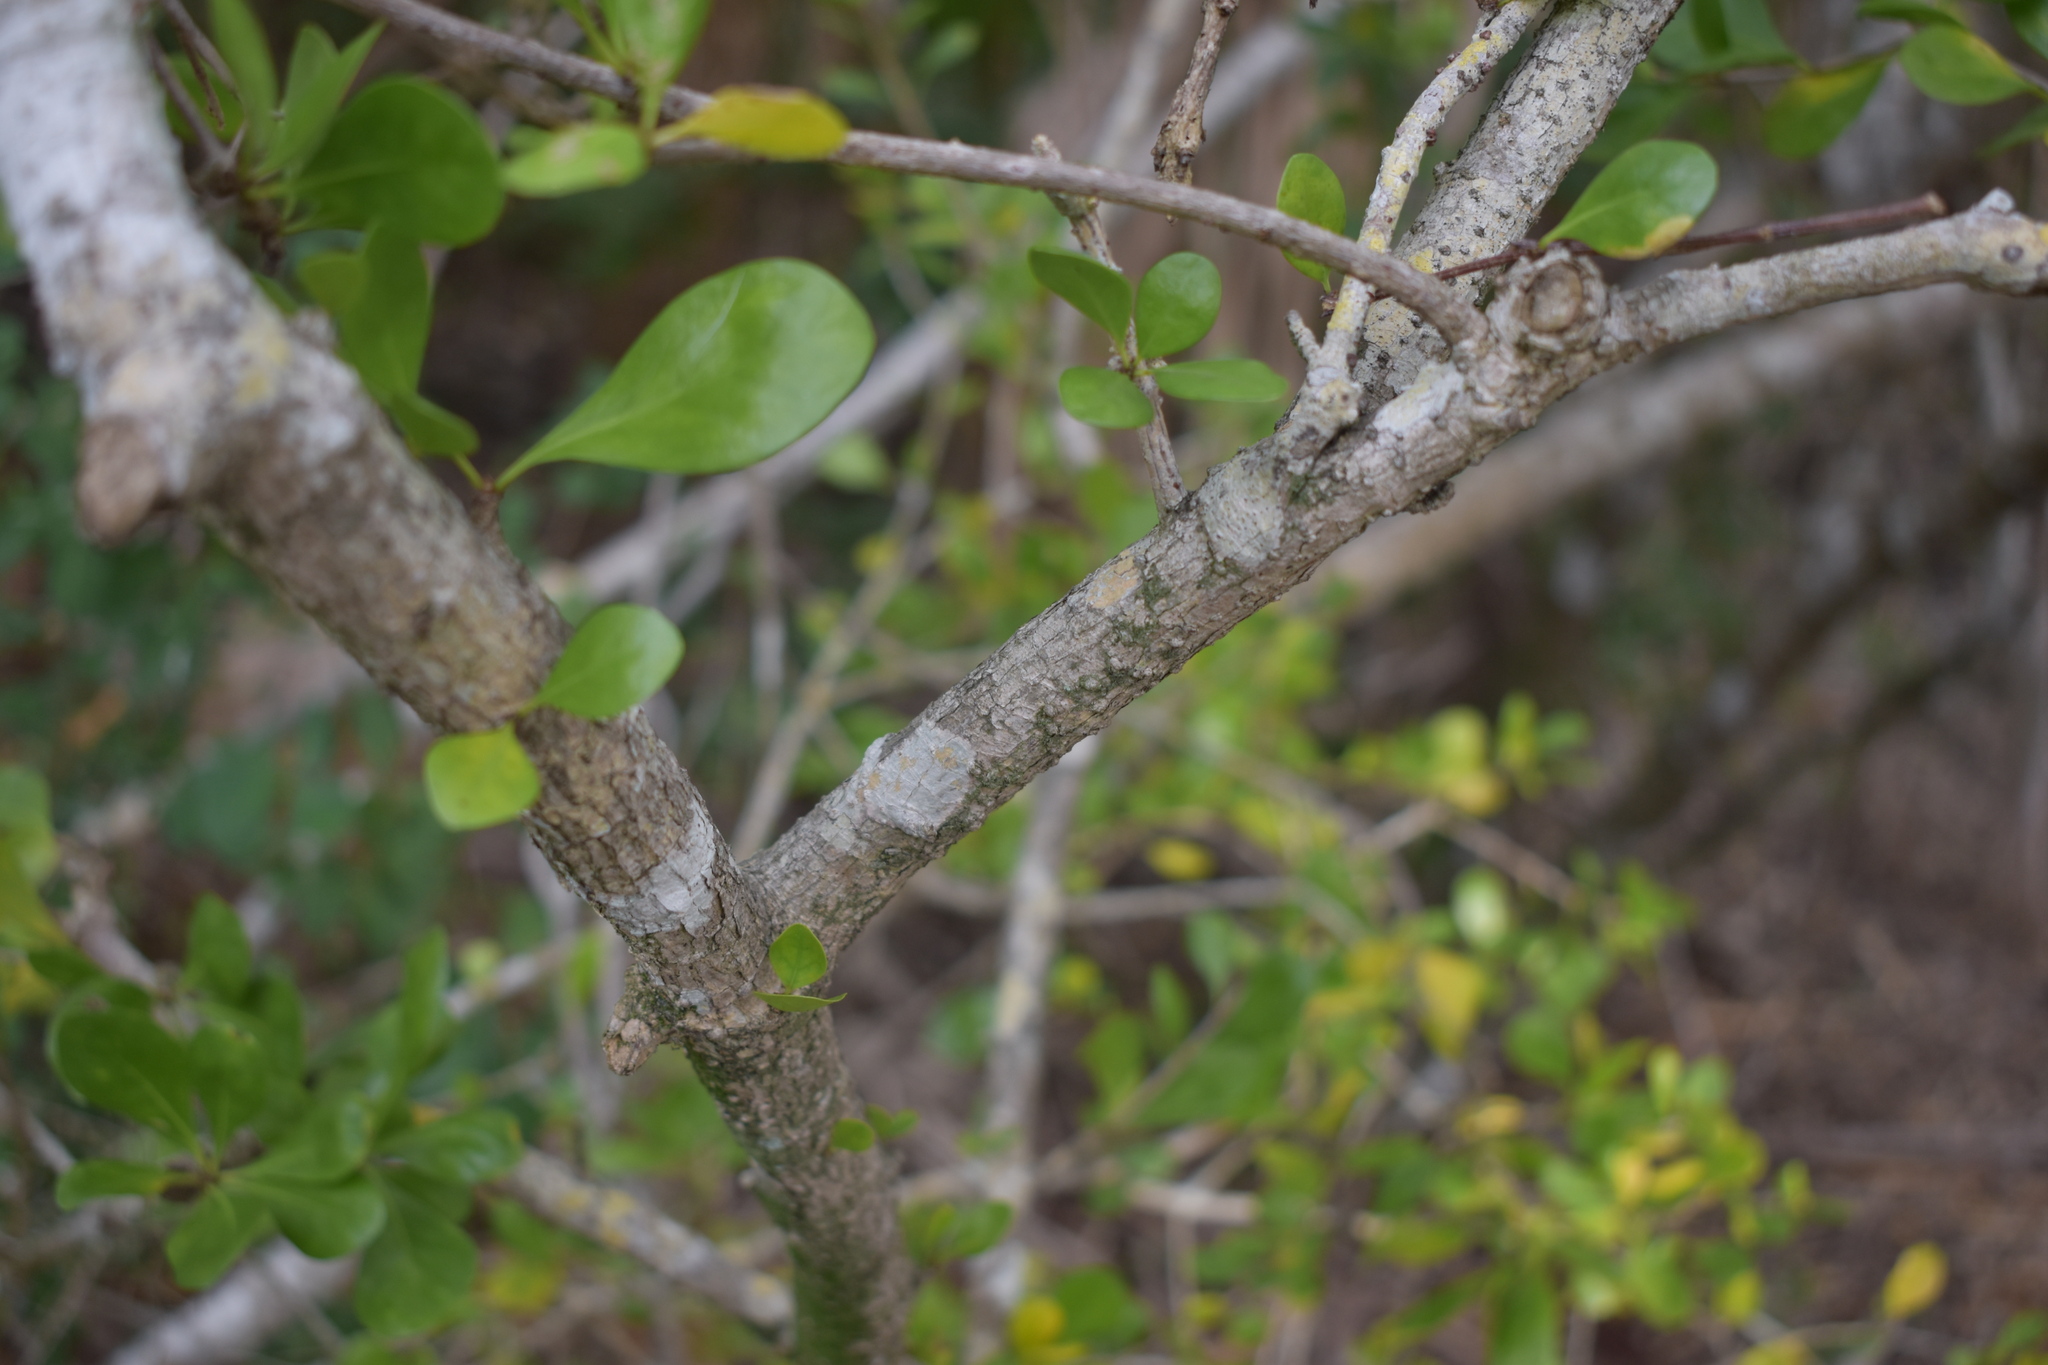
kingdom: Plantae
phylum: Tracheophyta
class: Magnoliopsida
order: Gentianales
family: Rubiaceae
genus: Randia
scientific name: Randia aculeata
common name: Inkberry
